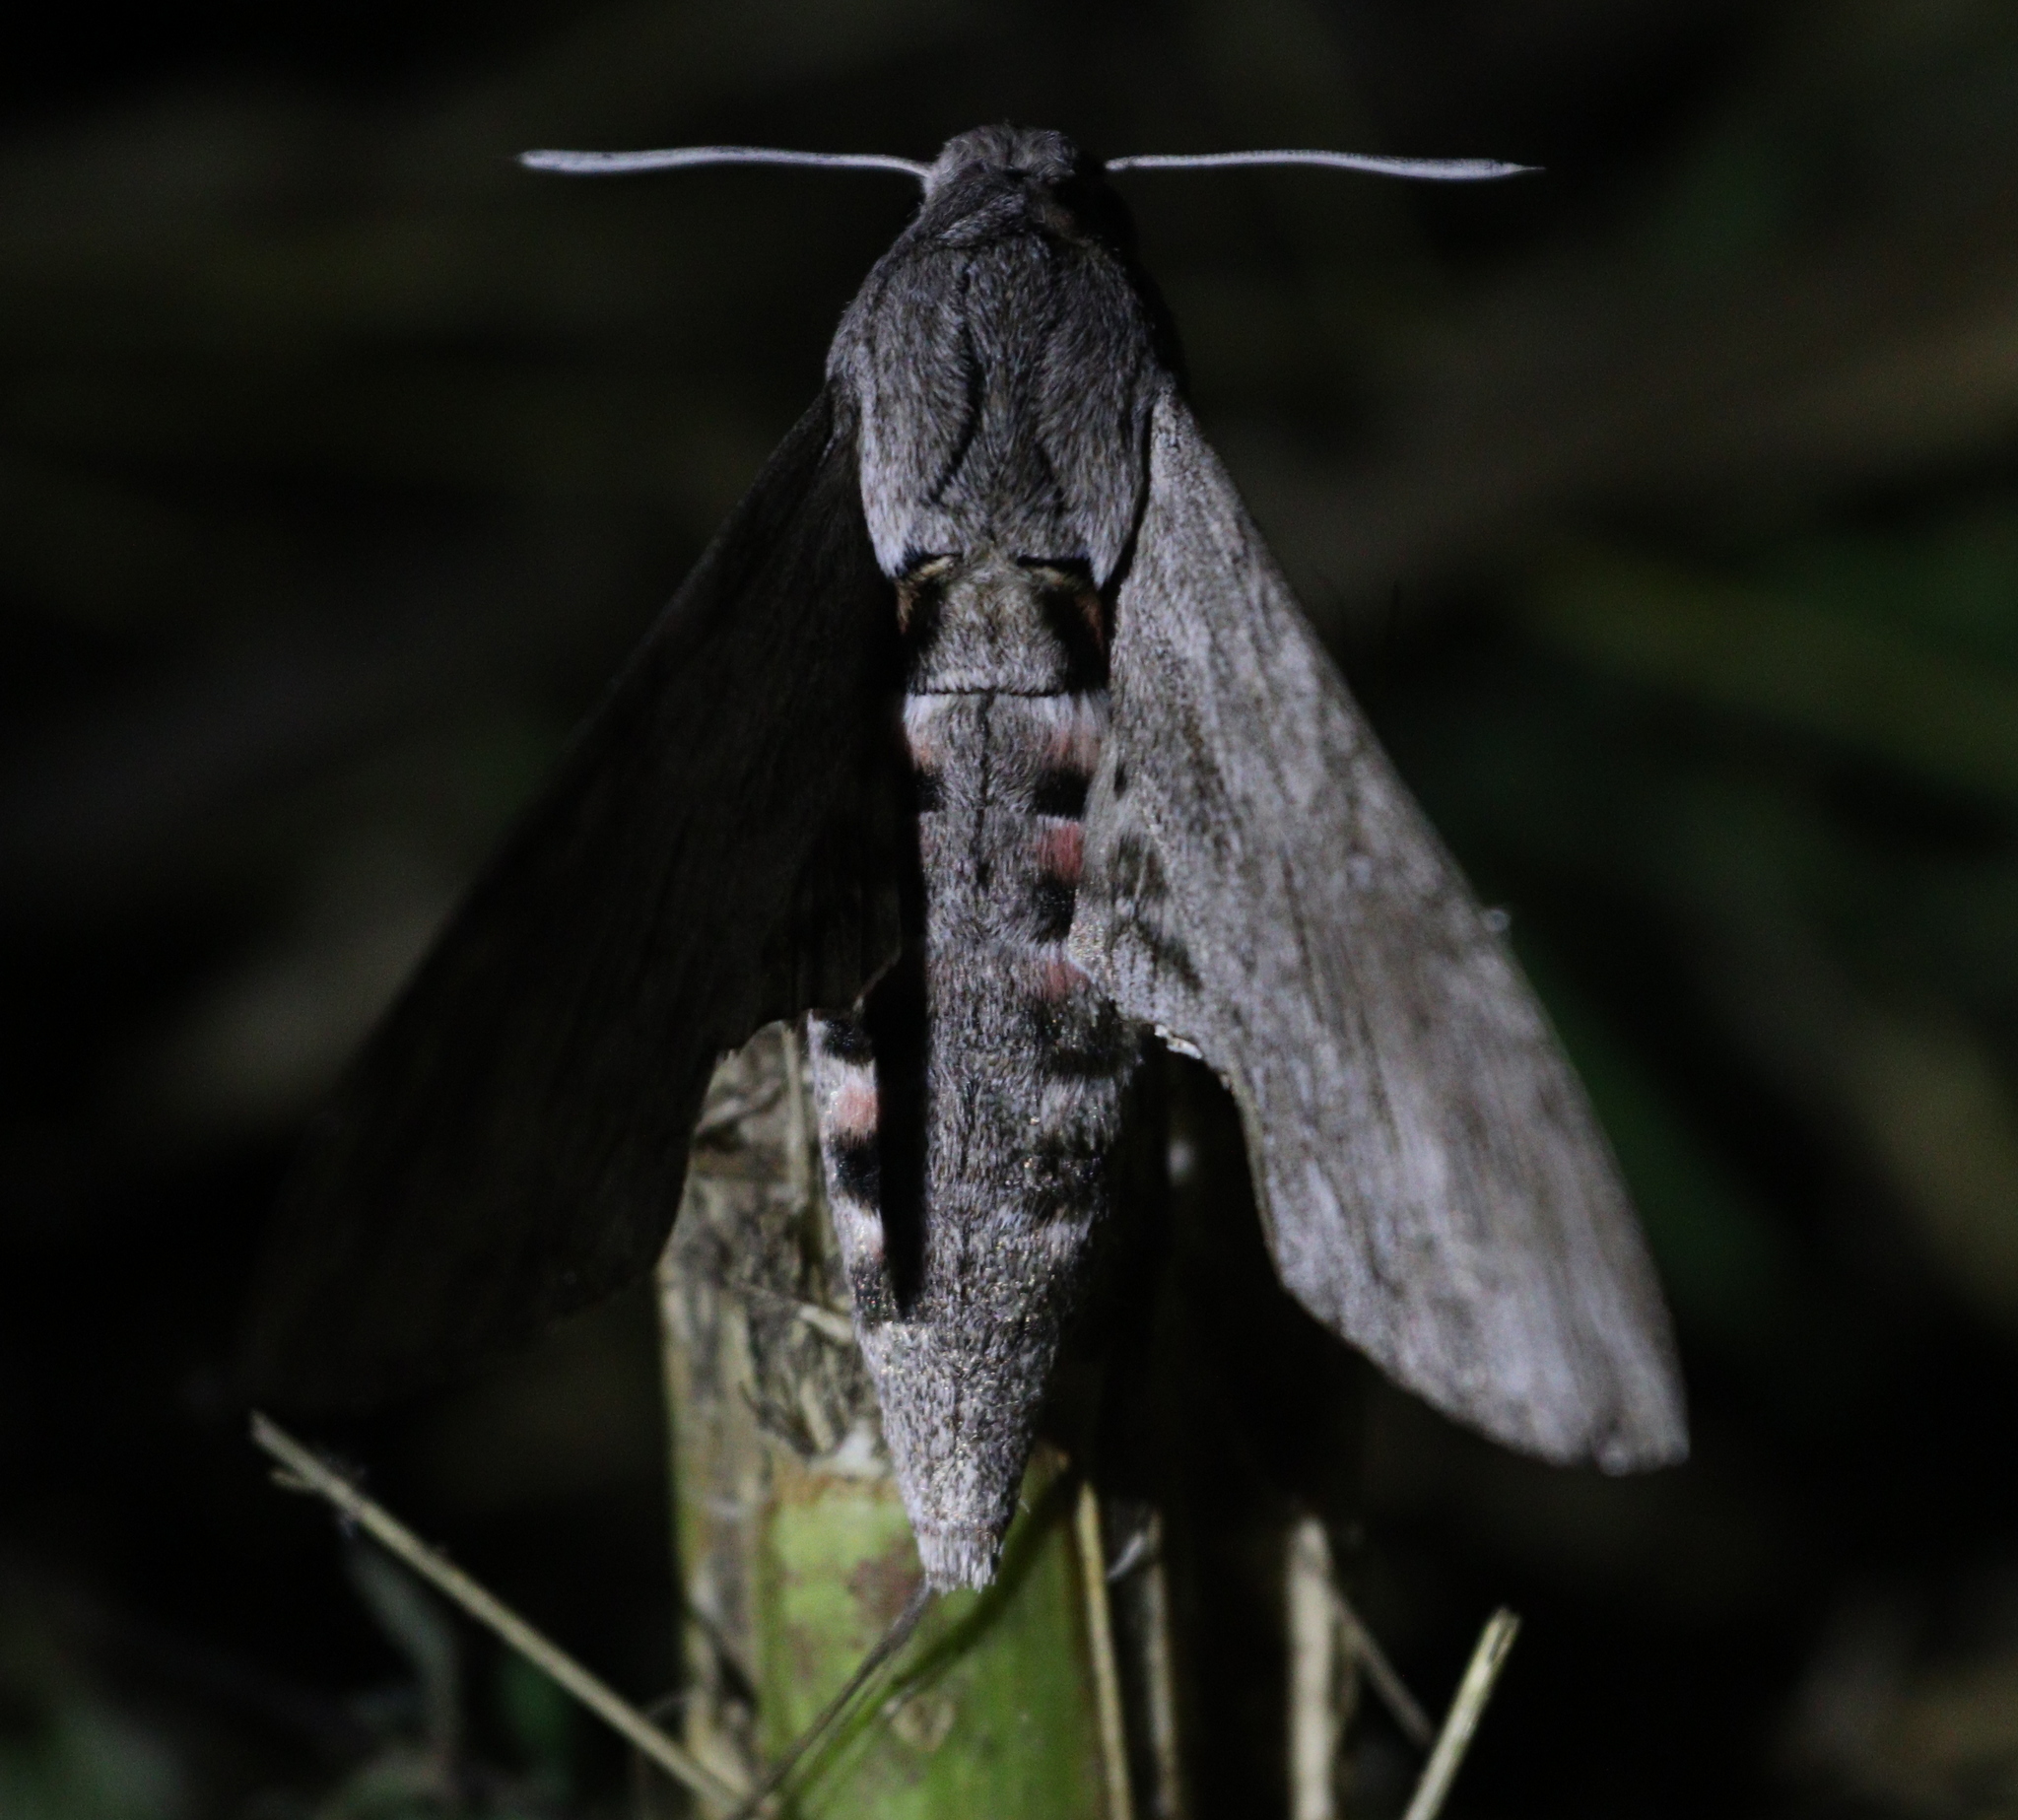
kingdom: Animalia
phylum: Arthropoda
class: Insecta
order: Lepidoptera
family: Sphingidae
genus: Agrius
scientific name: Agrius convolvuli
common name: Convolvulus hawkmoth
